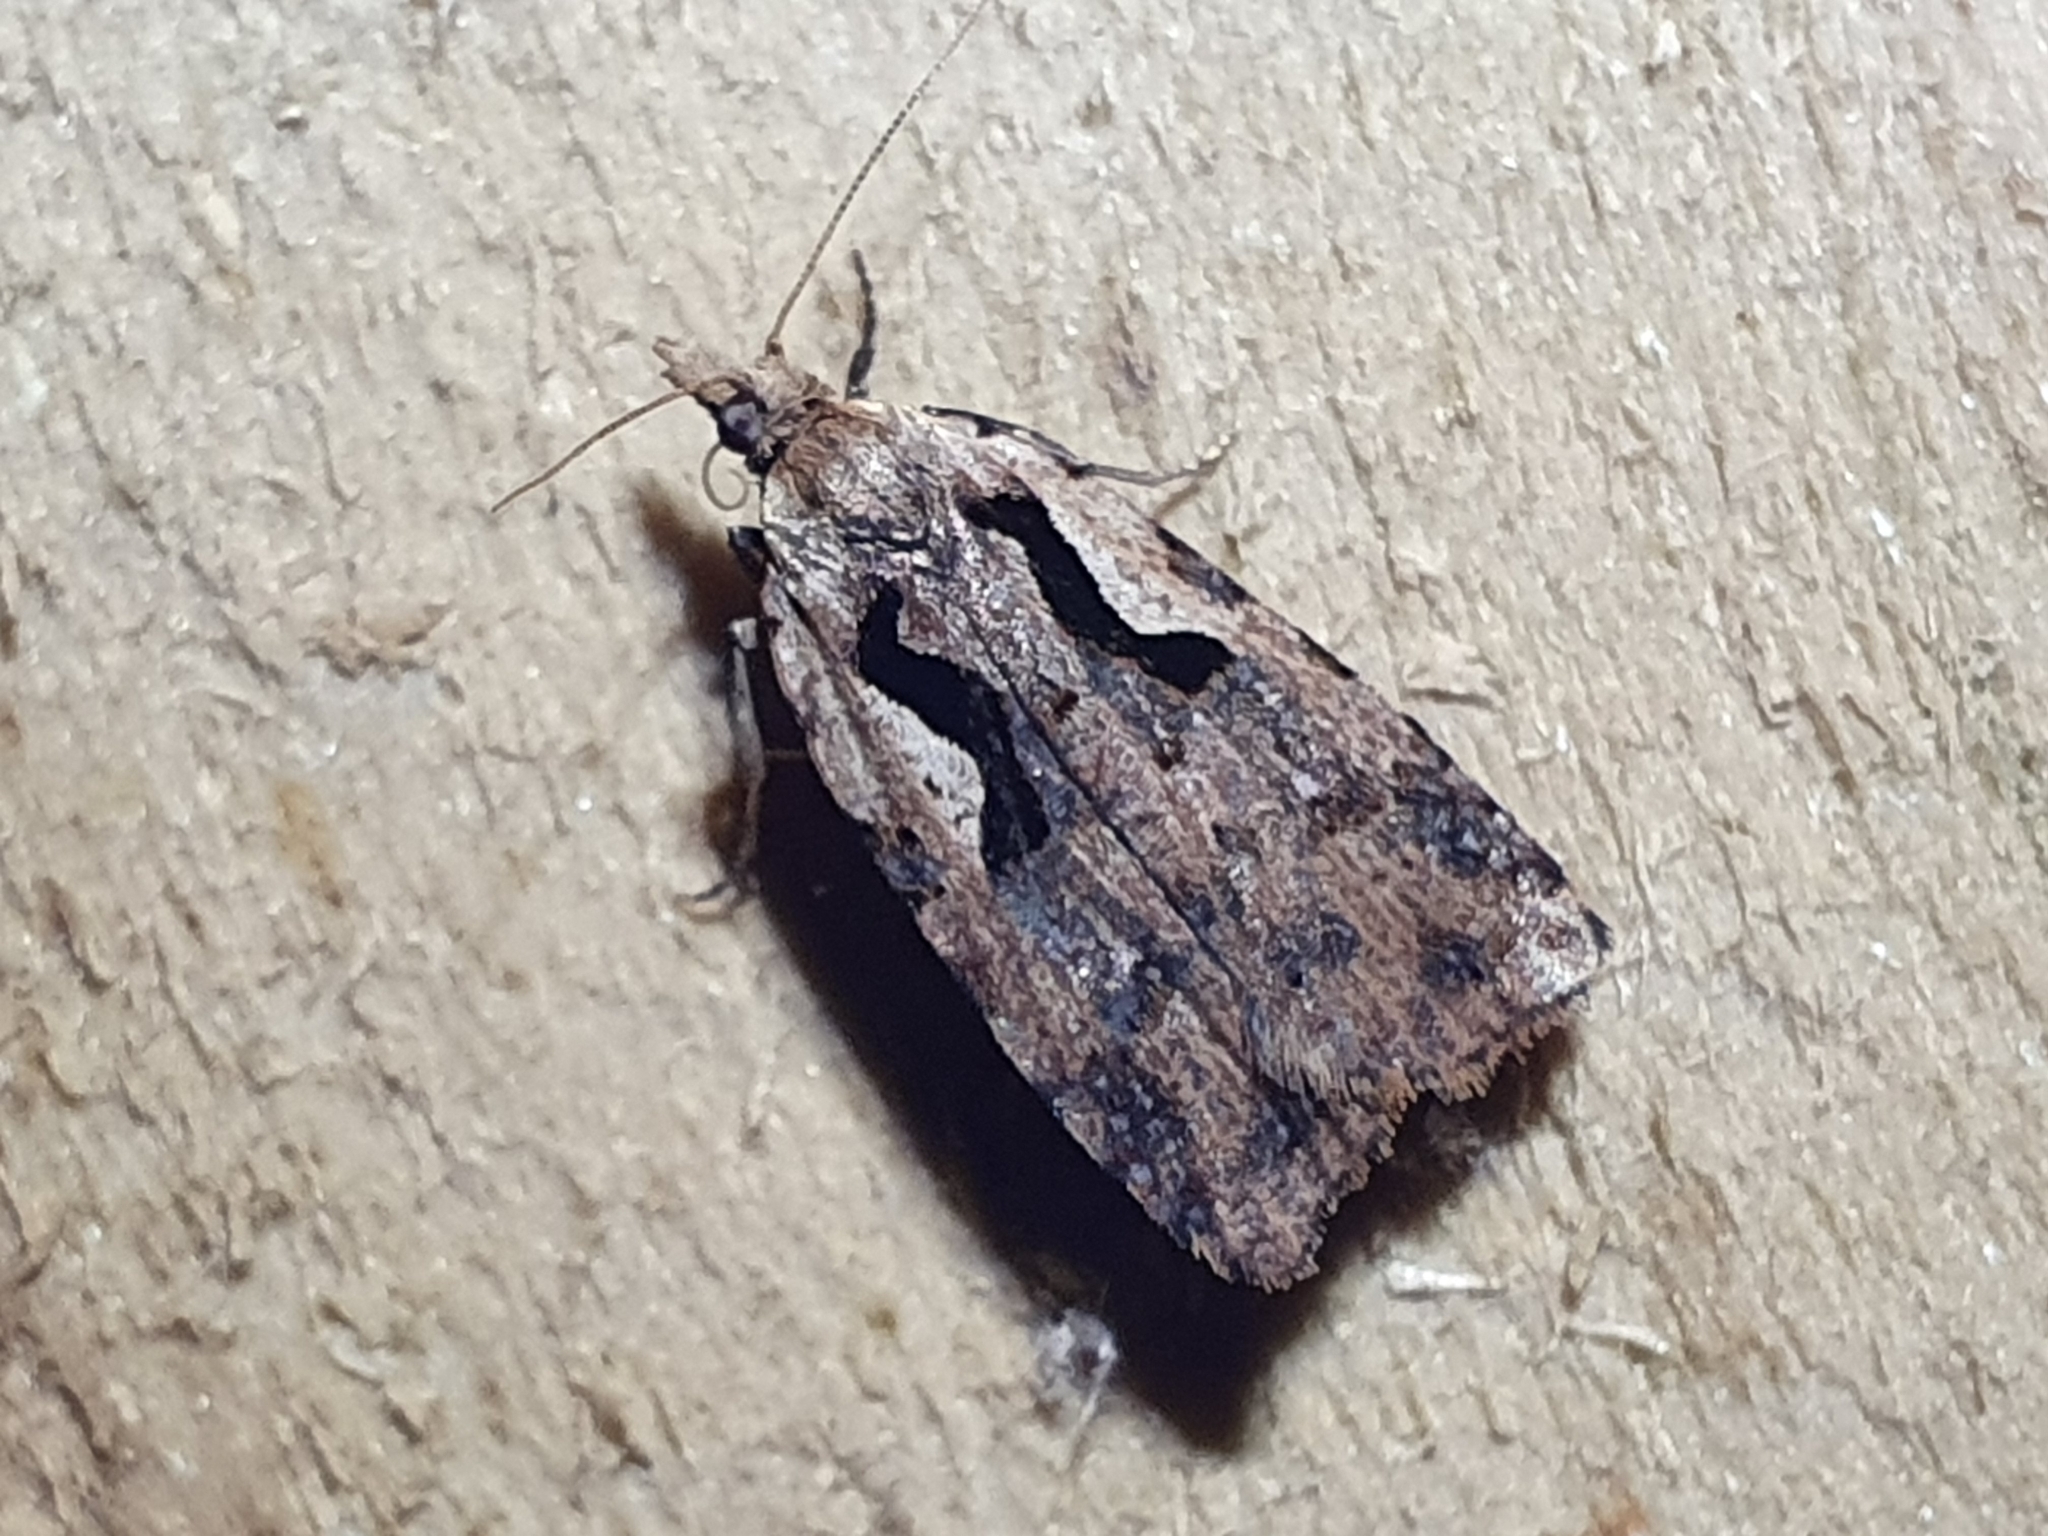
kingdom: Animalia
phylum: Arthropoda
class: Insecta
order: Lepidoptera
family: Tortricidae
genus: Cnephasia
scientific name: Cnephasia jactatana
